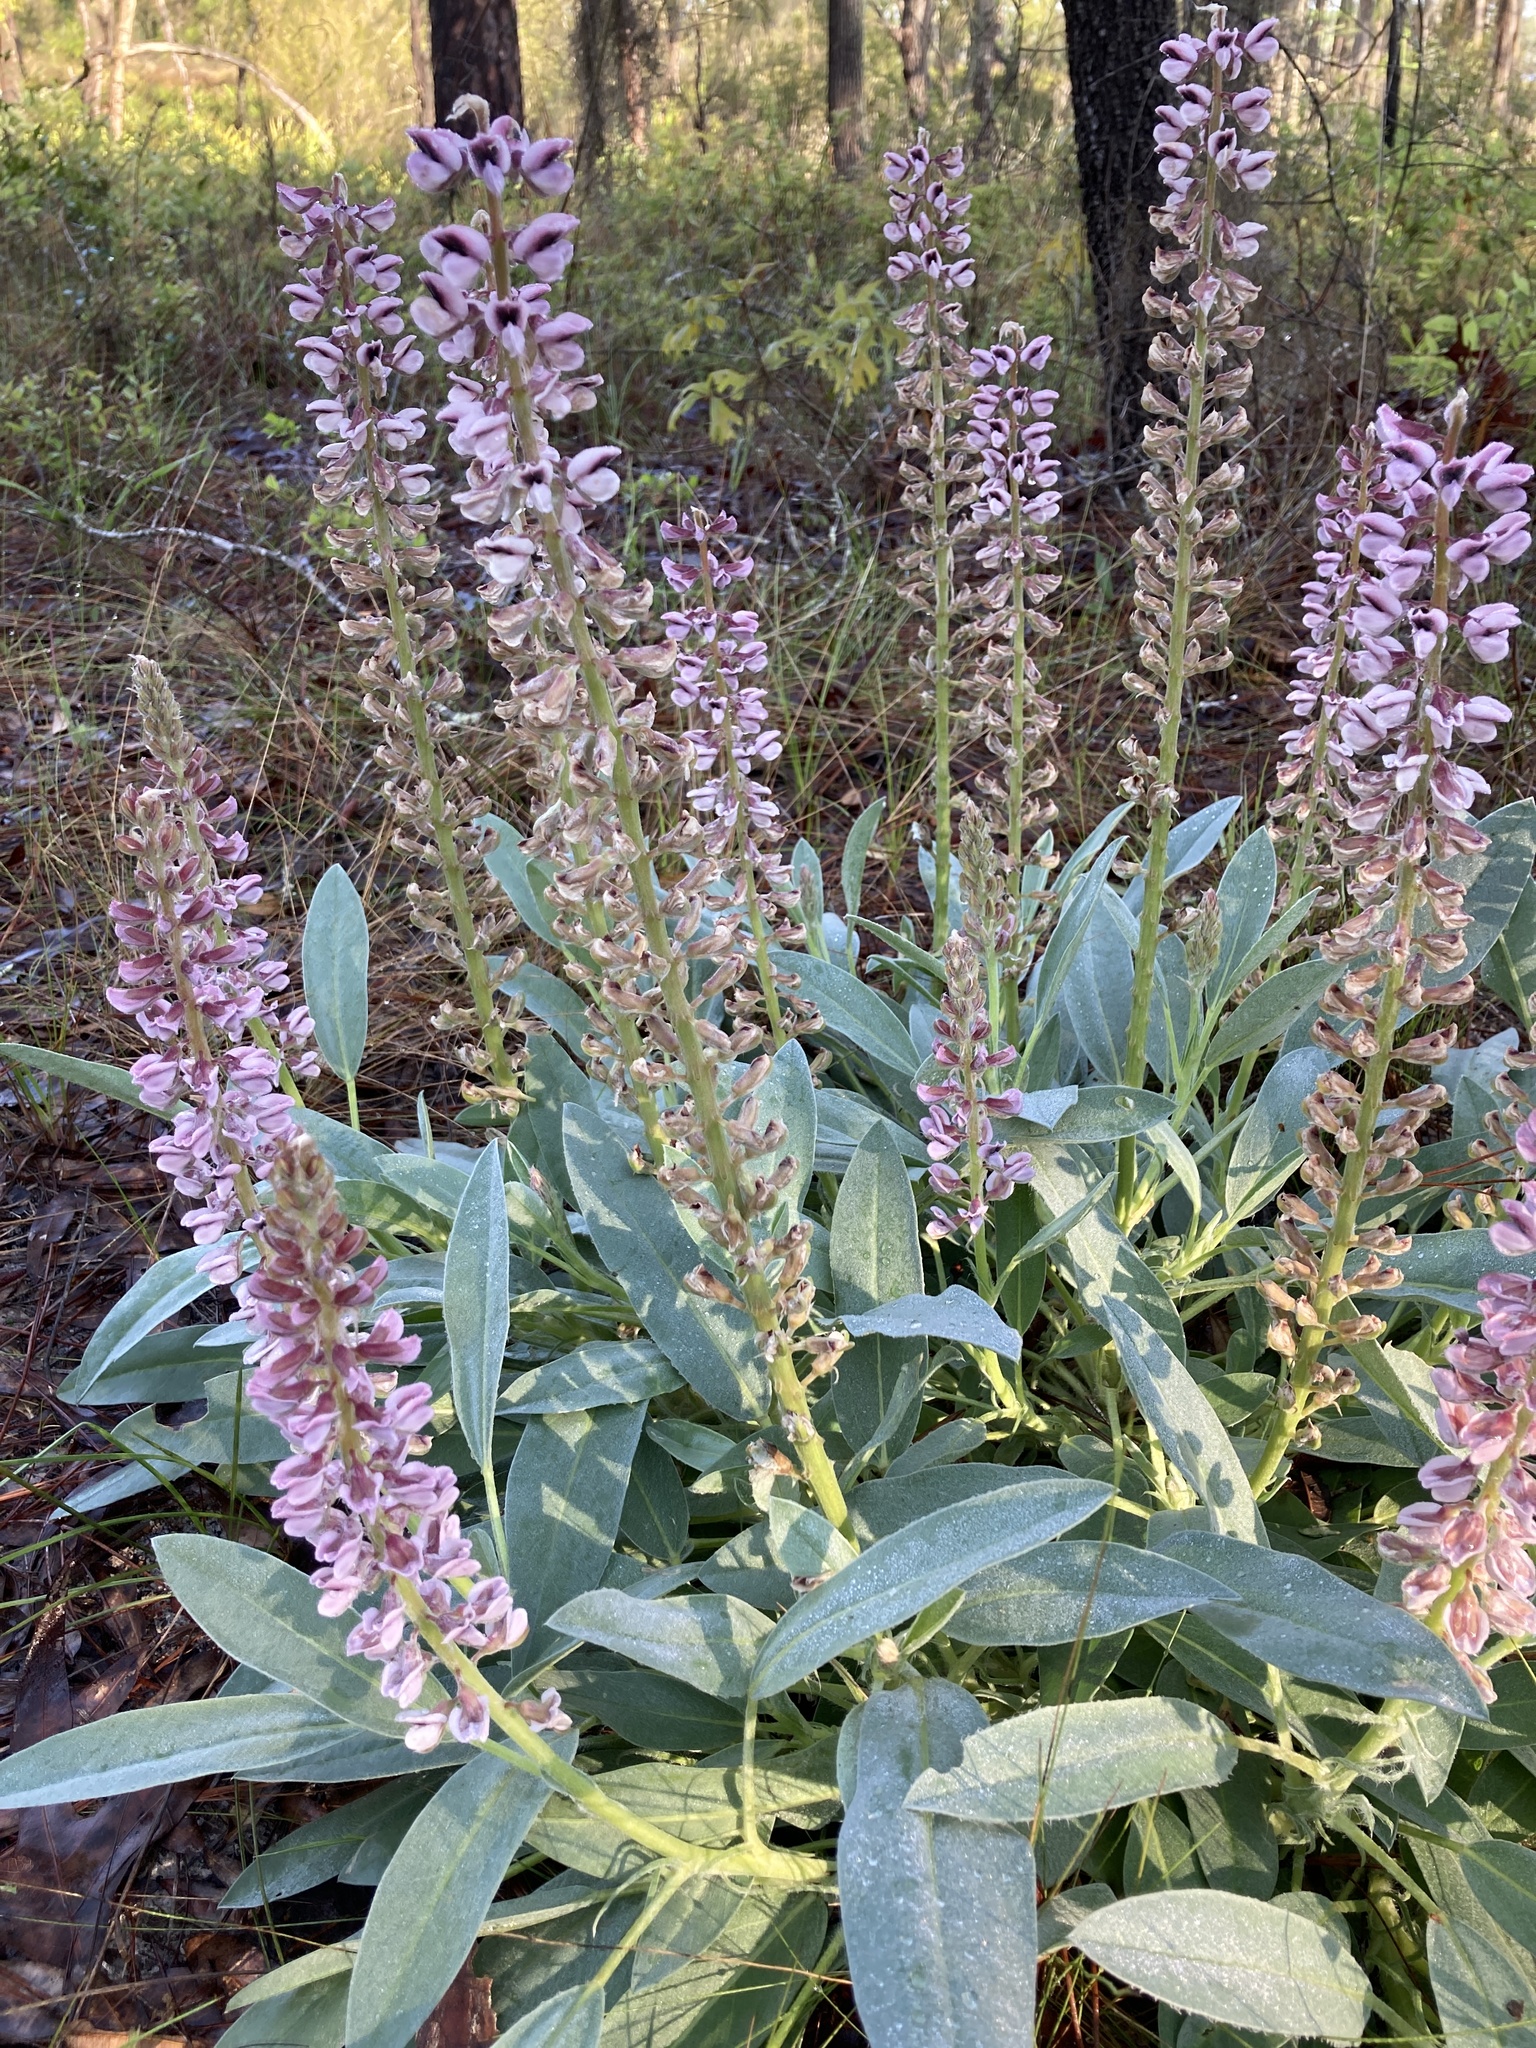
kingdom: Plantae
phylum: Tracheophyta
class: Magnoliopsida
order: Fabales
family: Fabaceae
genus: Lupinus
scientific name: Lupinus villosus
